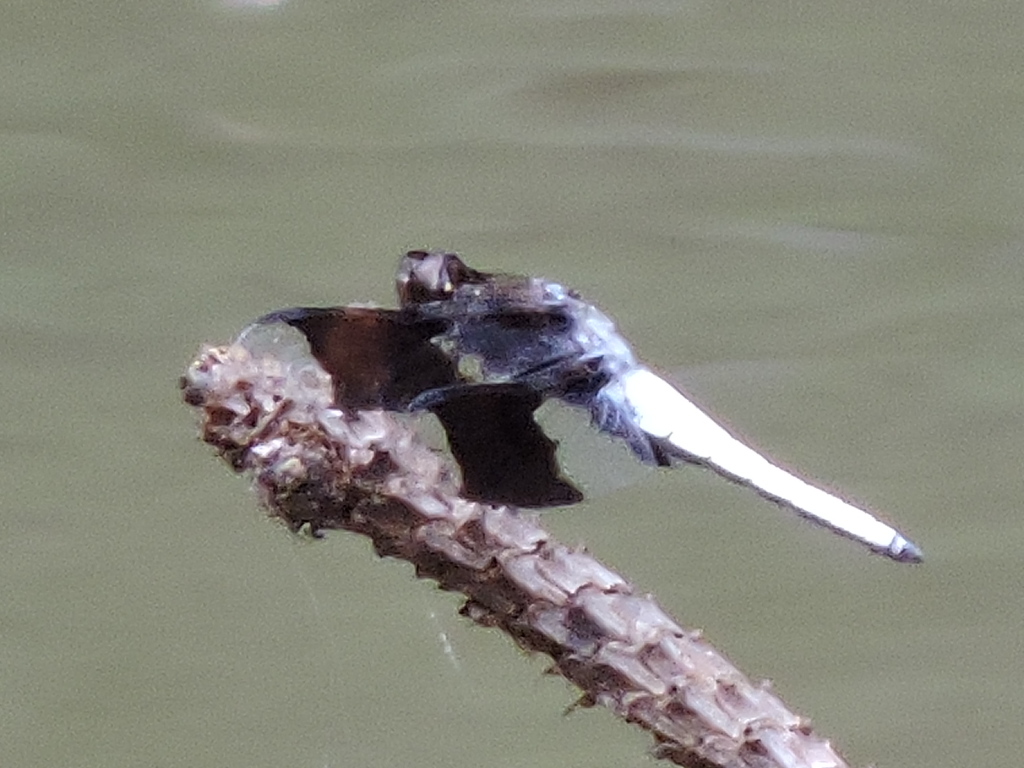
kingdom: Animalia
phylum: Arthropoda
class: Insecta
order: Odonata
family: Libellulidae
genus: Plathemis
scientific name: Plathemis lydia
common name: Common whitetail
